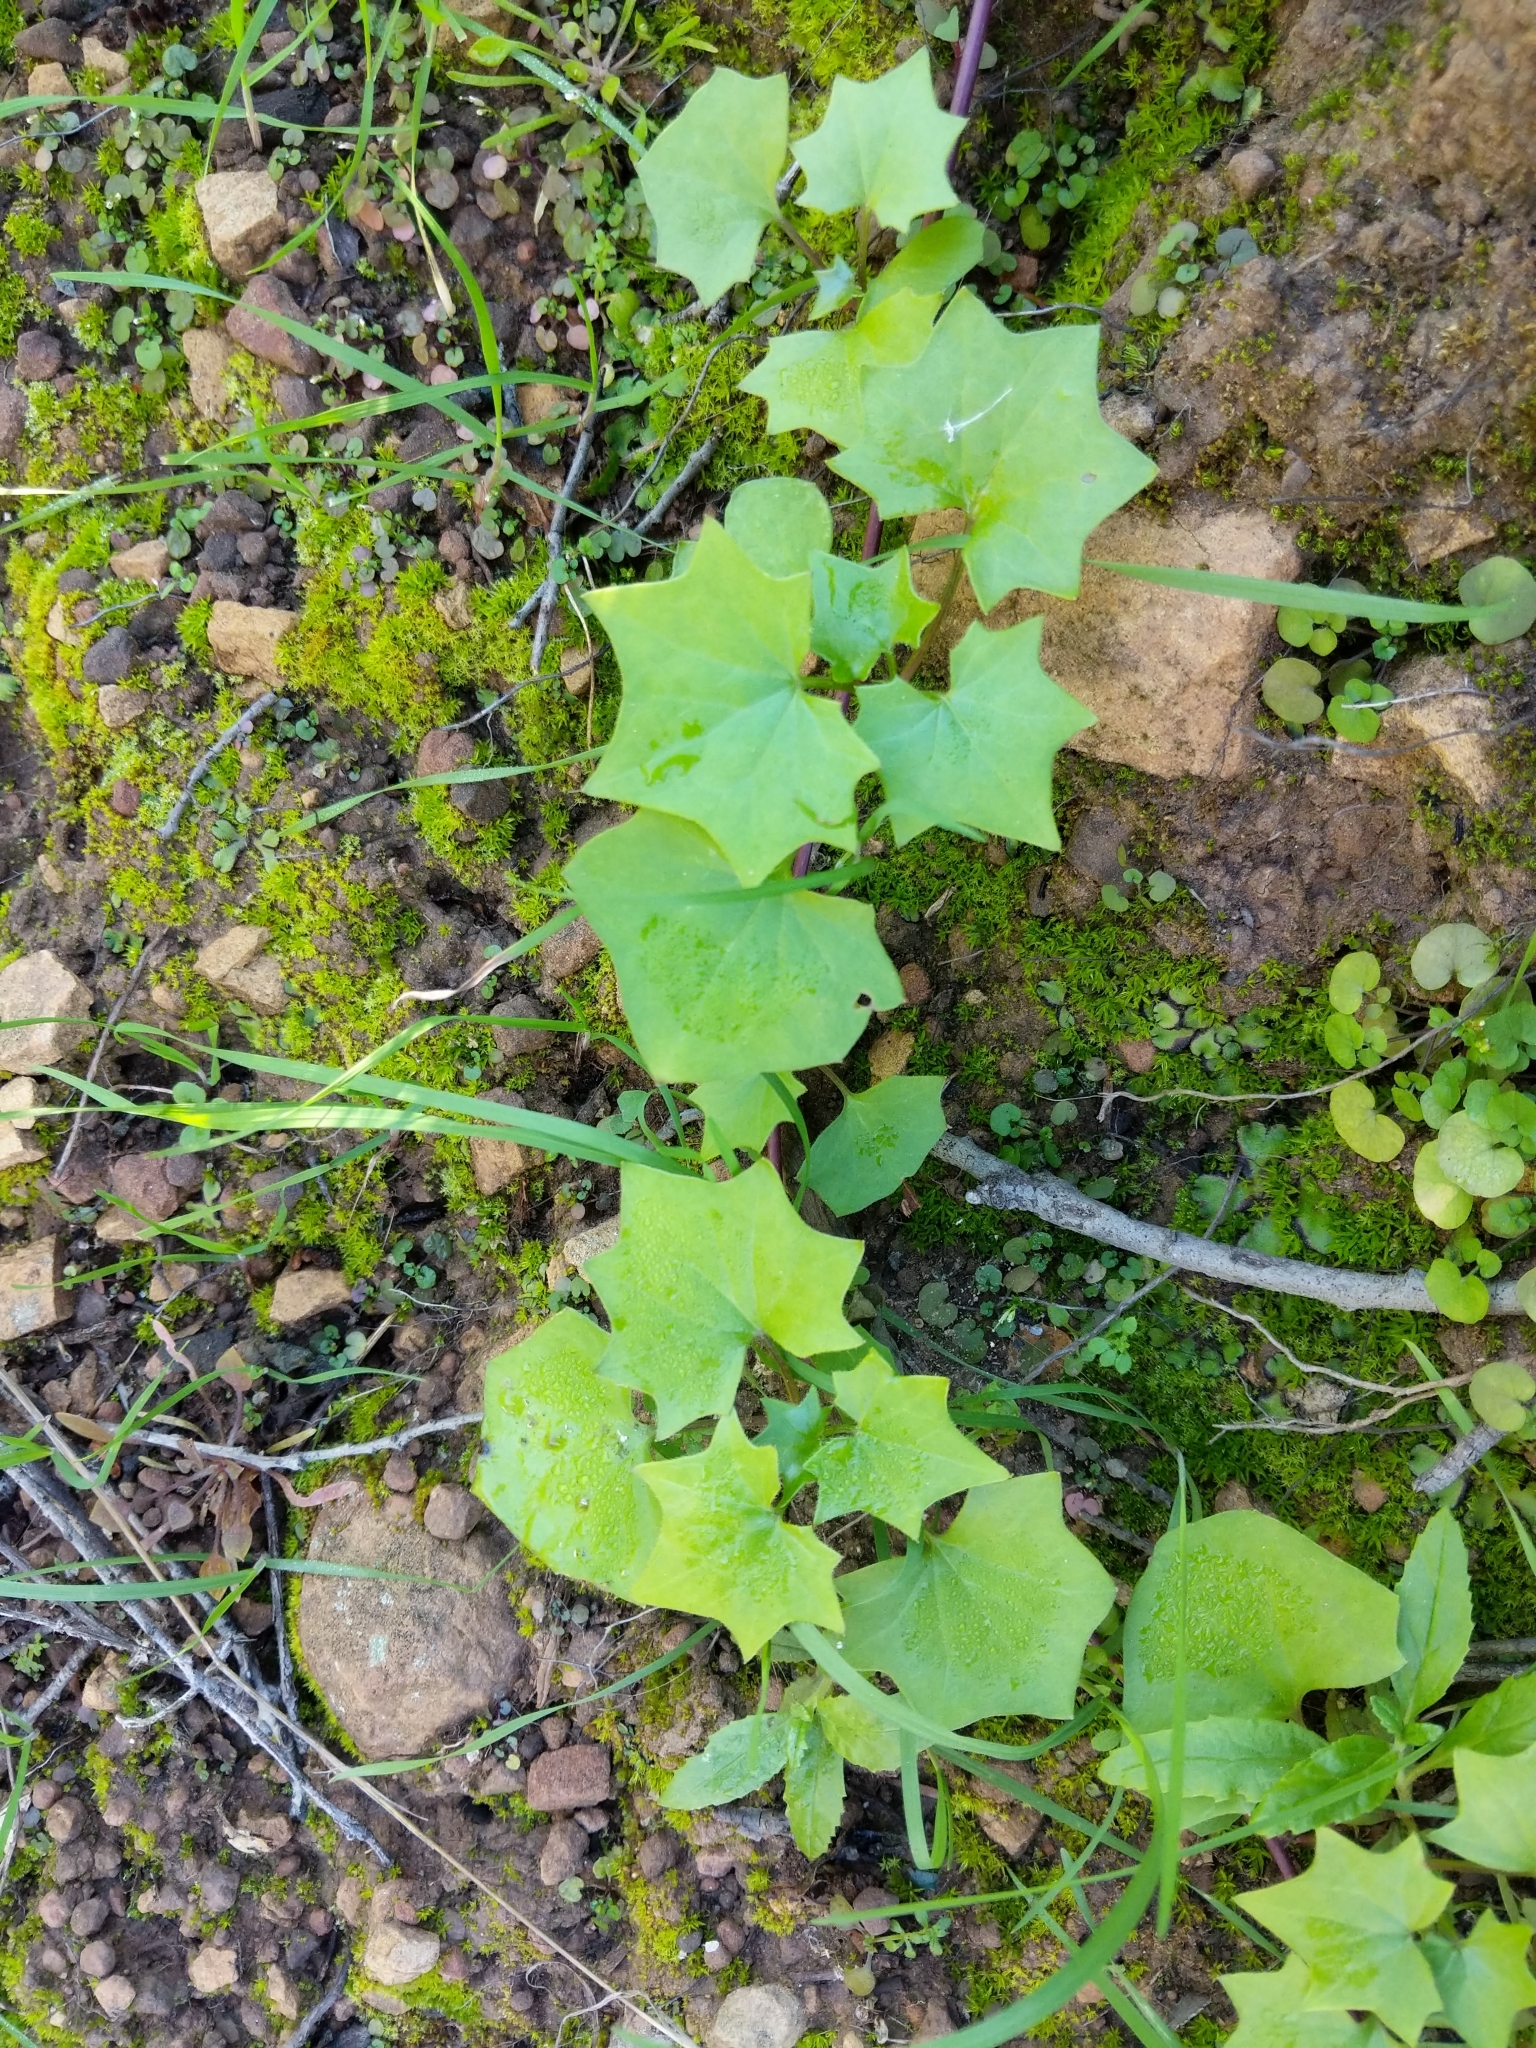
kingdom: Plantae
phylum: Tracheophyta
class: Magnoliopsida
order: Asterales
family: Asteraceae
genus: Delairea
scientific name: Delairea odorata
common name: Cape-ivy
